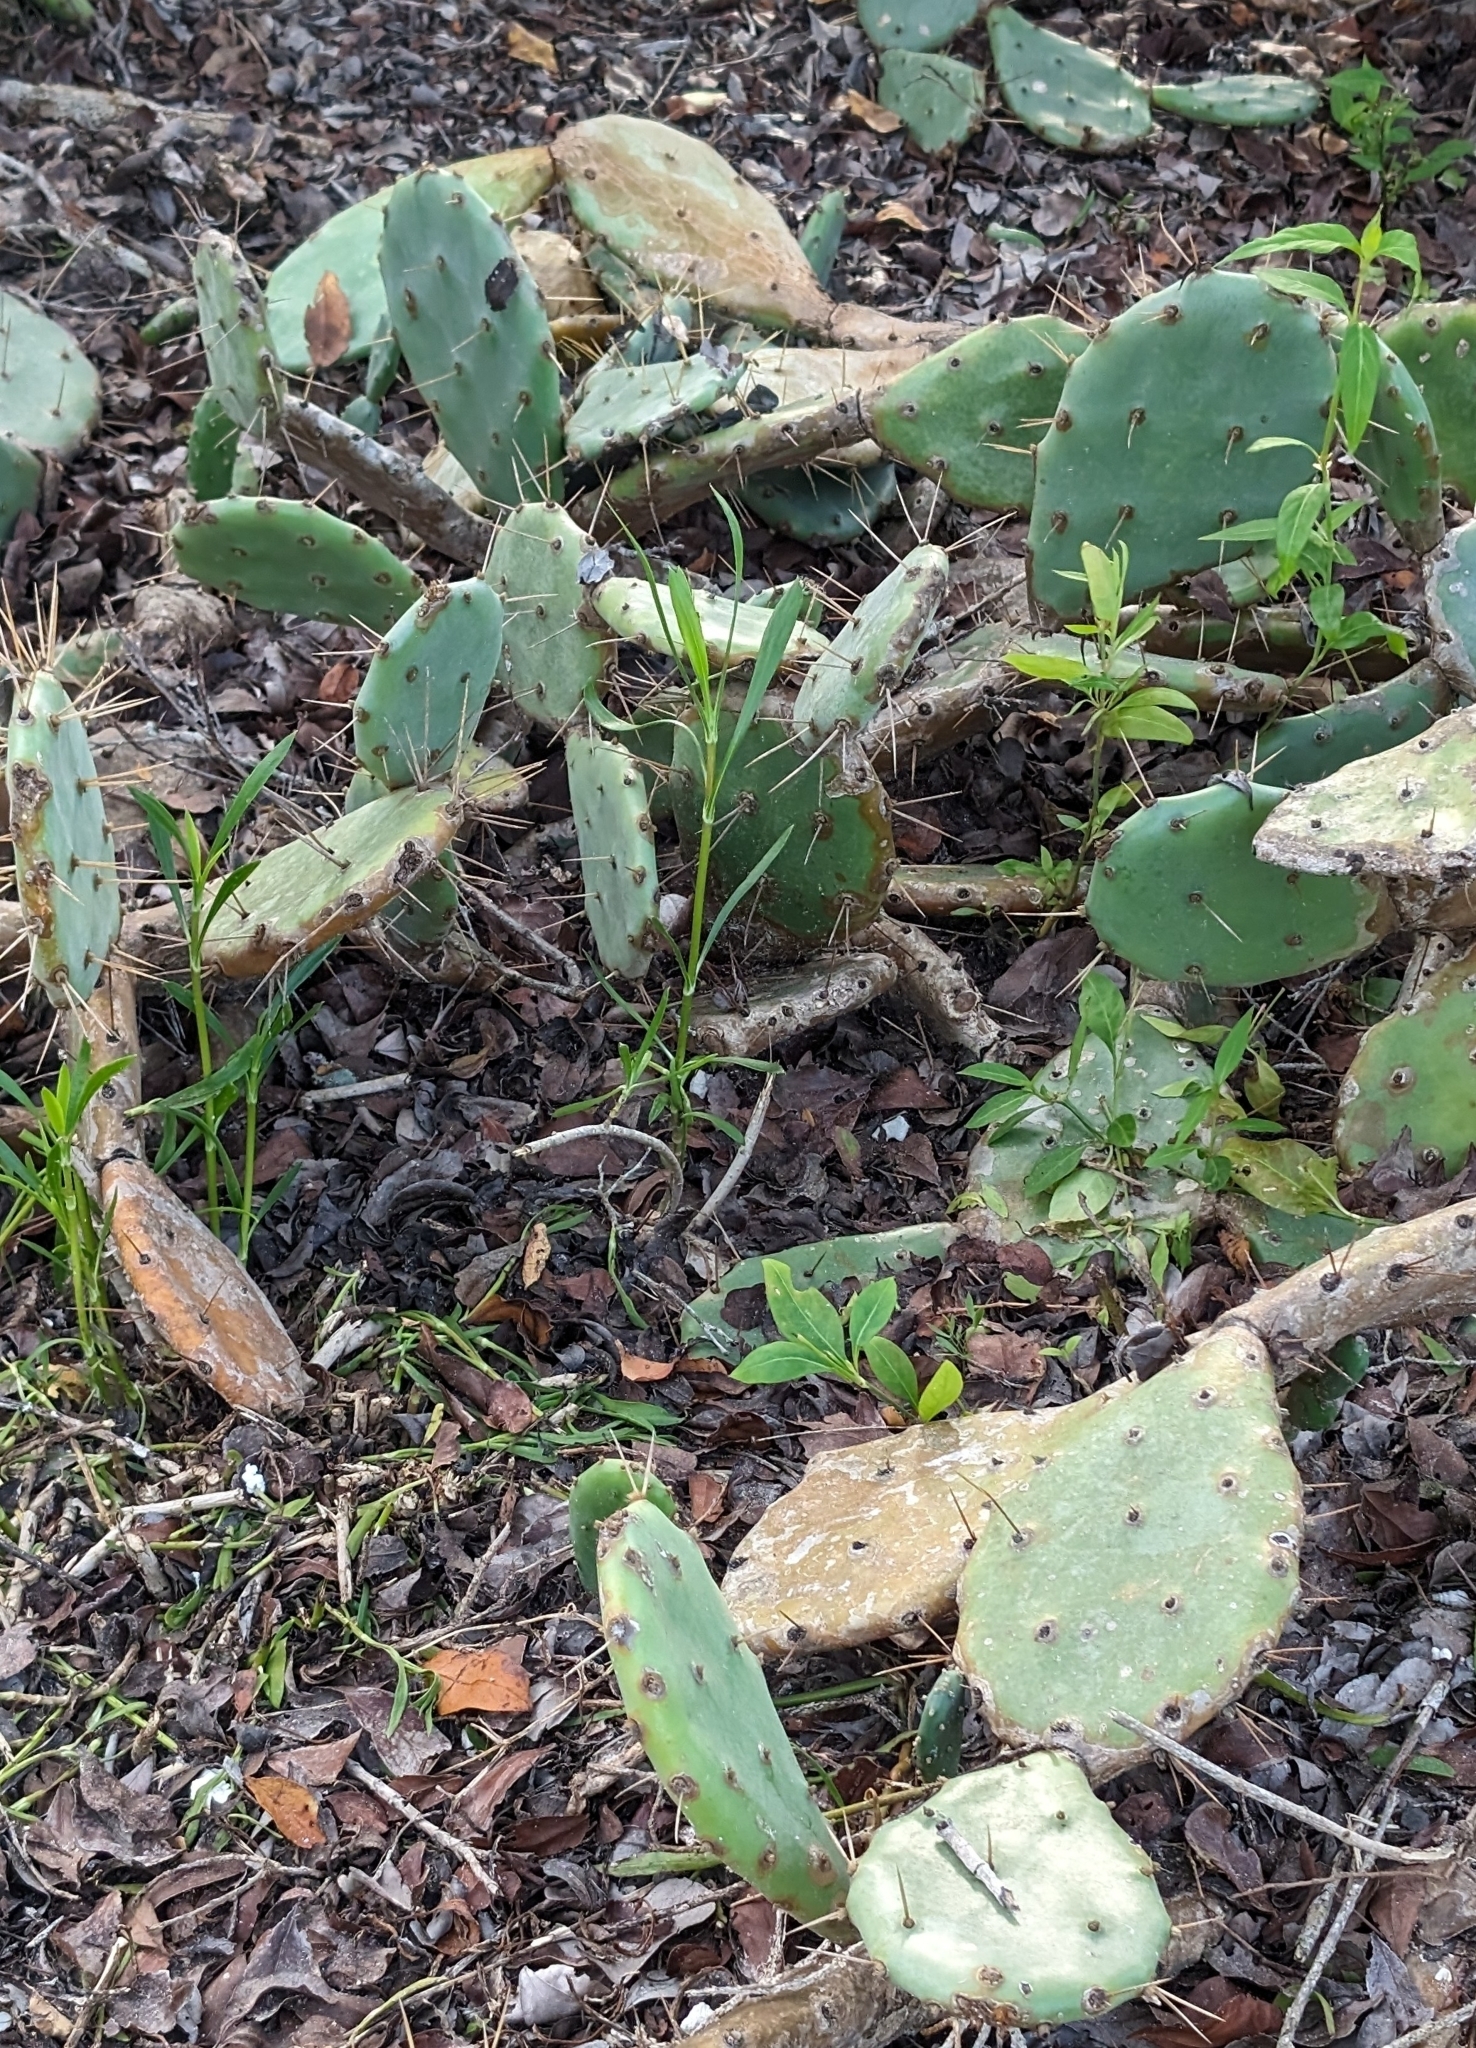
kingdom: Plantae
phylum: Tracheophyta
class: Magnoliopsida
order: Caryophyllales
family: Cactaceae
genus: Opuntia
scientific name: Opuntia cubensis
